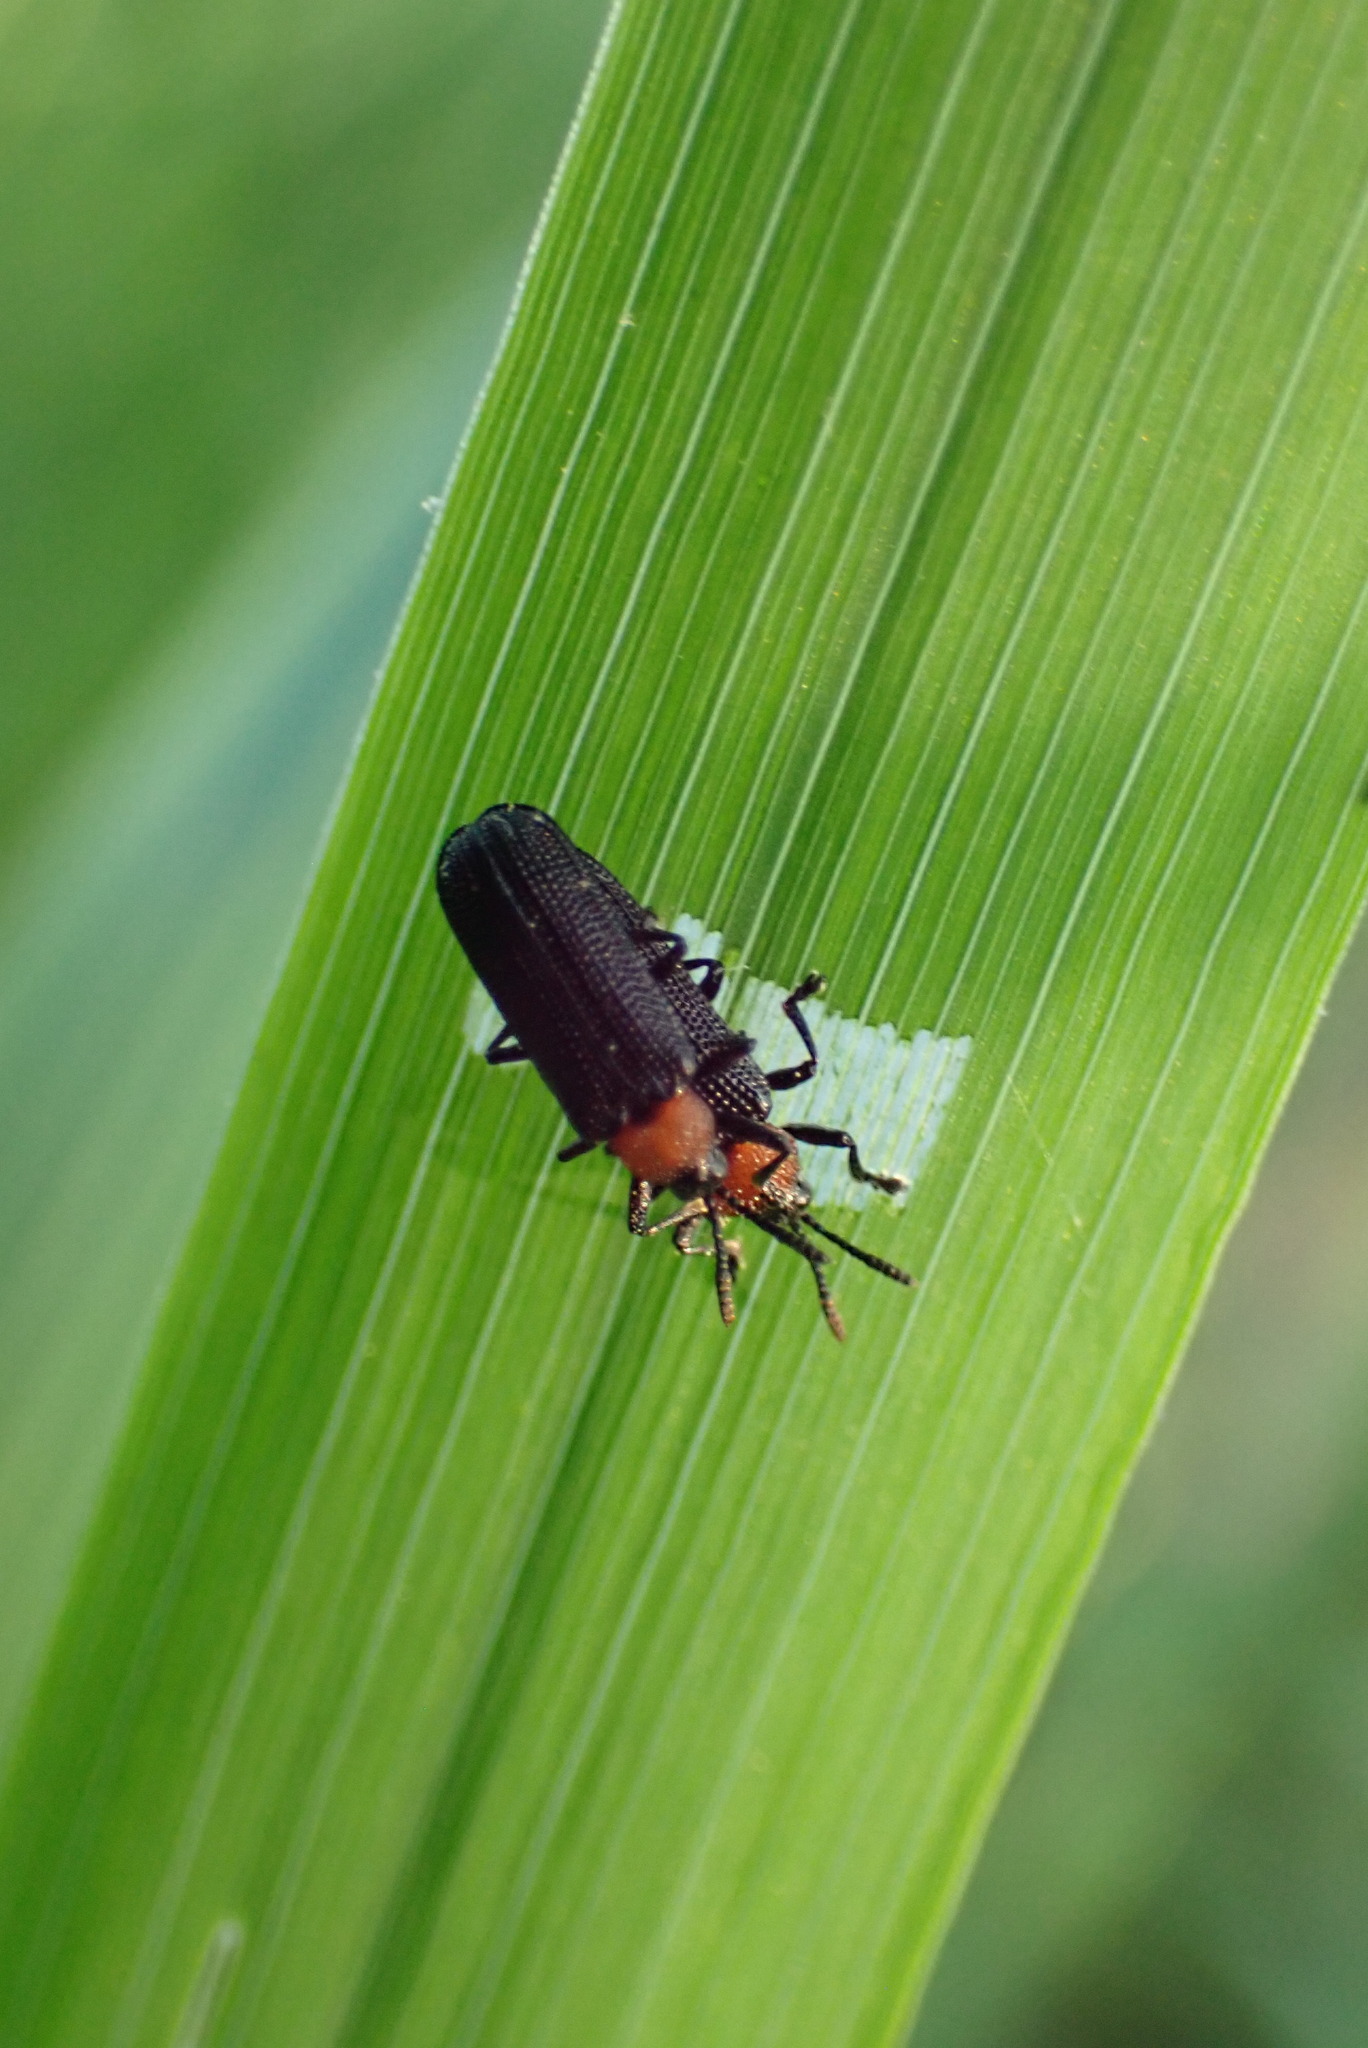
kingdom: Animalia
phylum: Arthropoda
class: Insecta
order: Coleoptera
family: Chrysomelidae
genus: Chalepus
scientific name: Chalepus walshii
